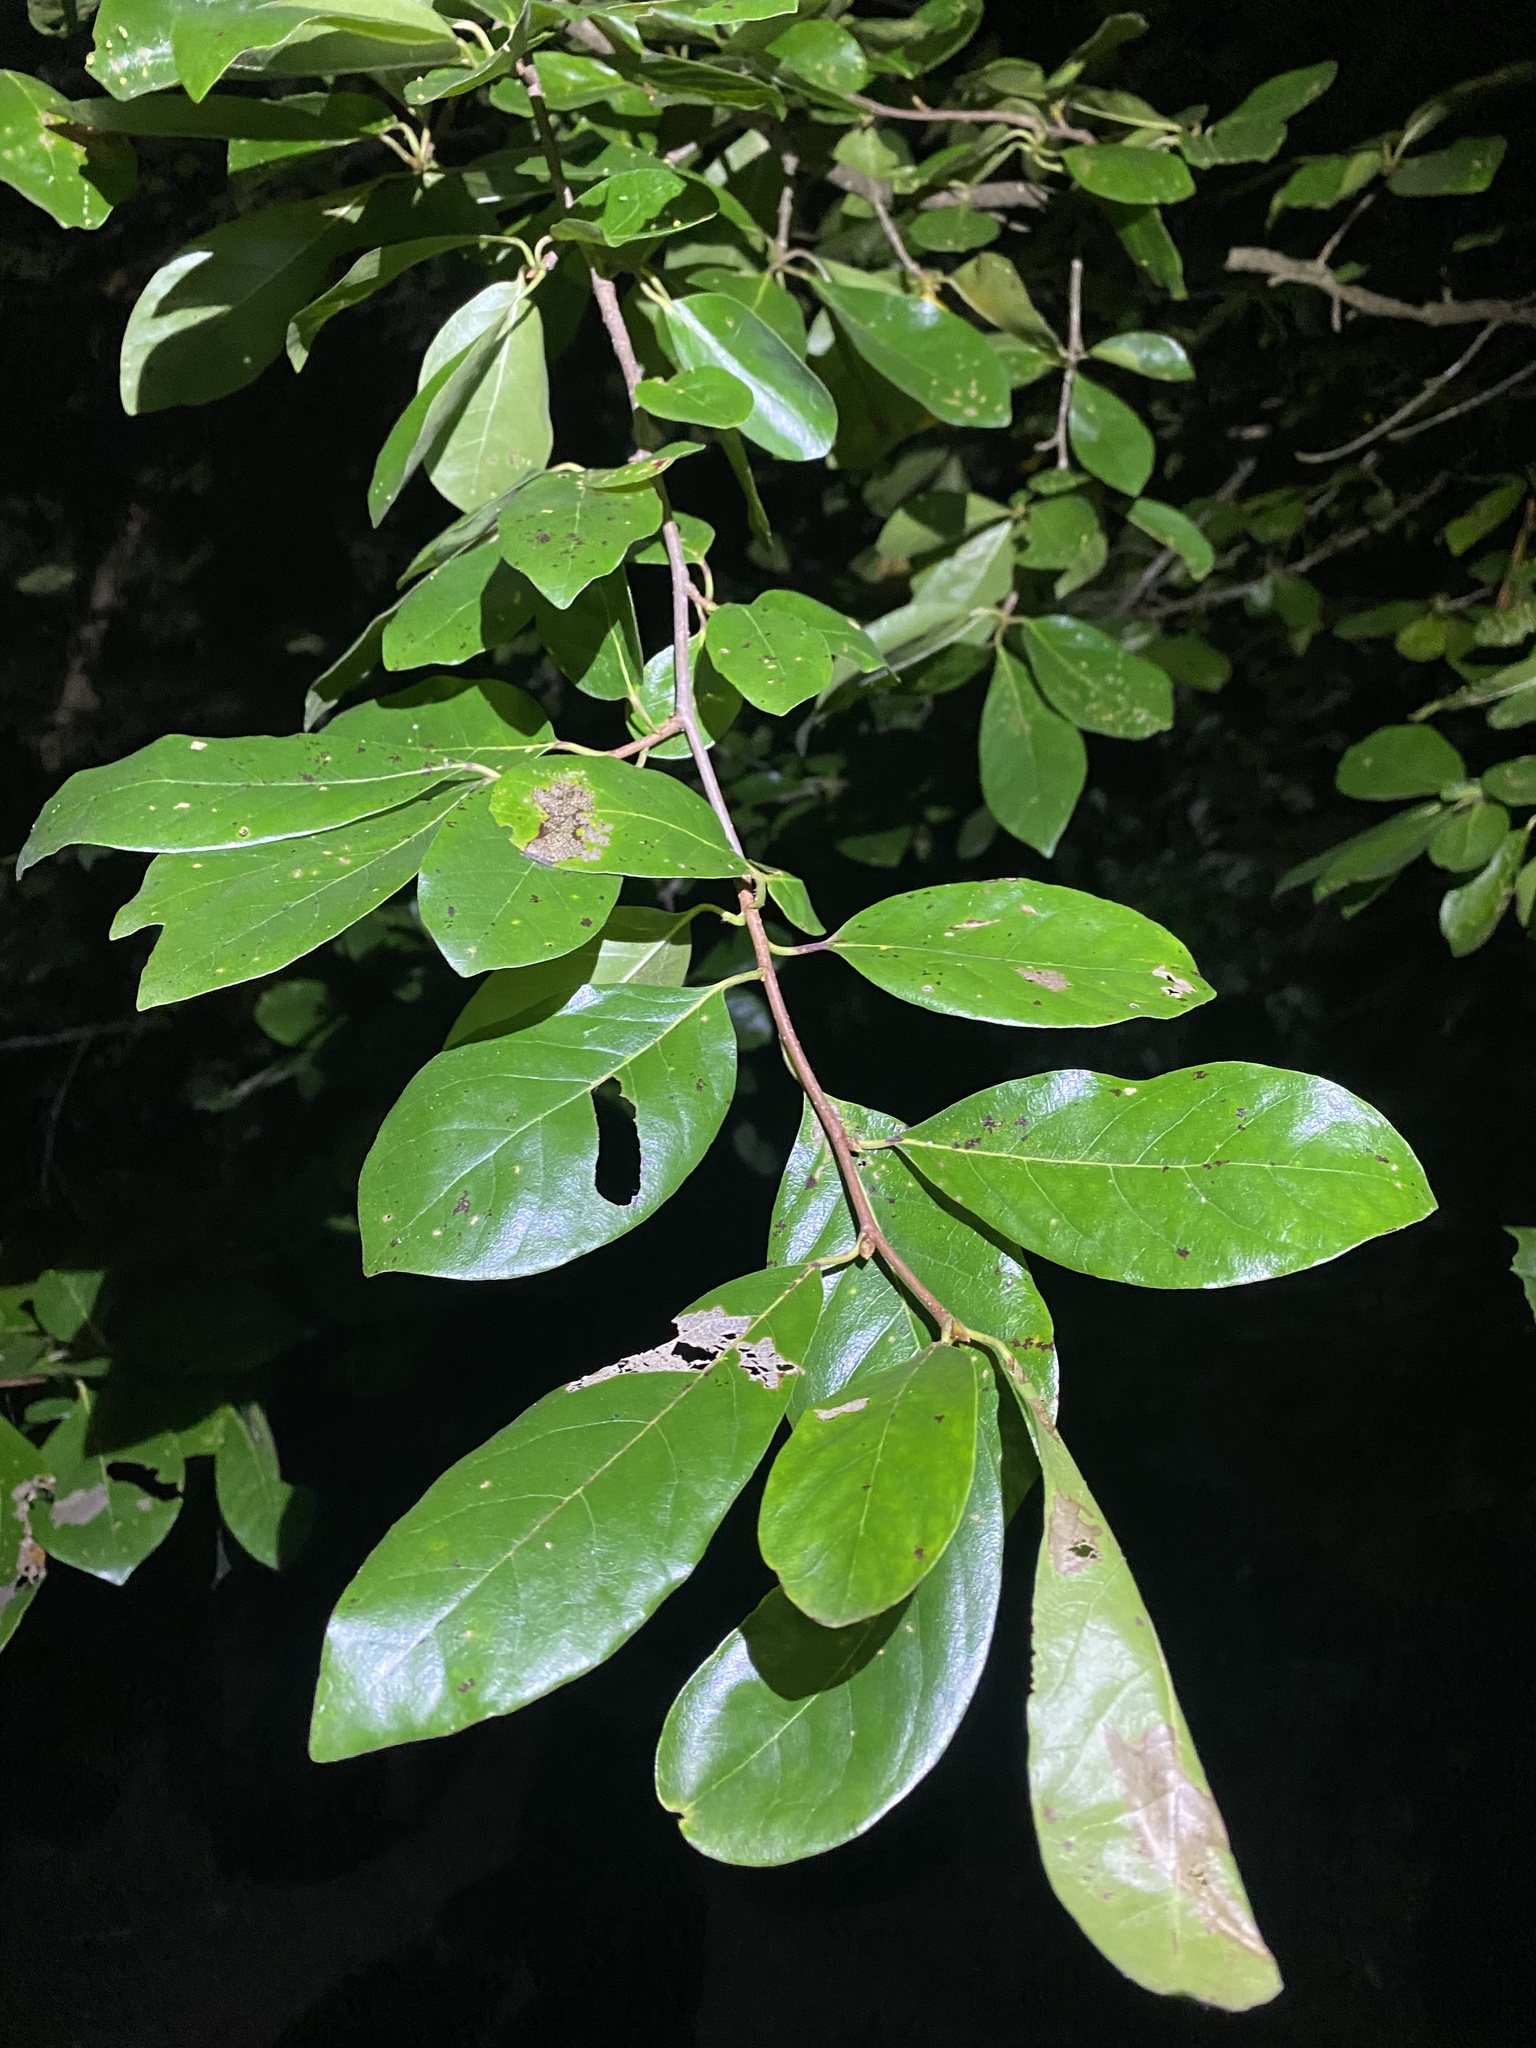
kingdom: Plantae
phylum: Tracheophyta
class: Magnoliopsida
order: Cornales
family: Nyssaceae
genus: Nyssa
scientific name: Nyssa sylvatica
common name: Black tupelo
